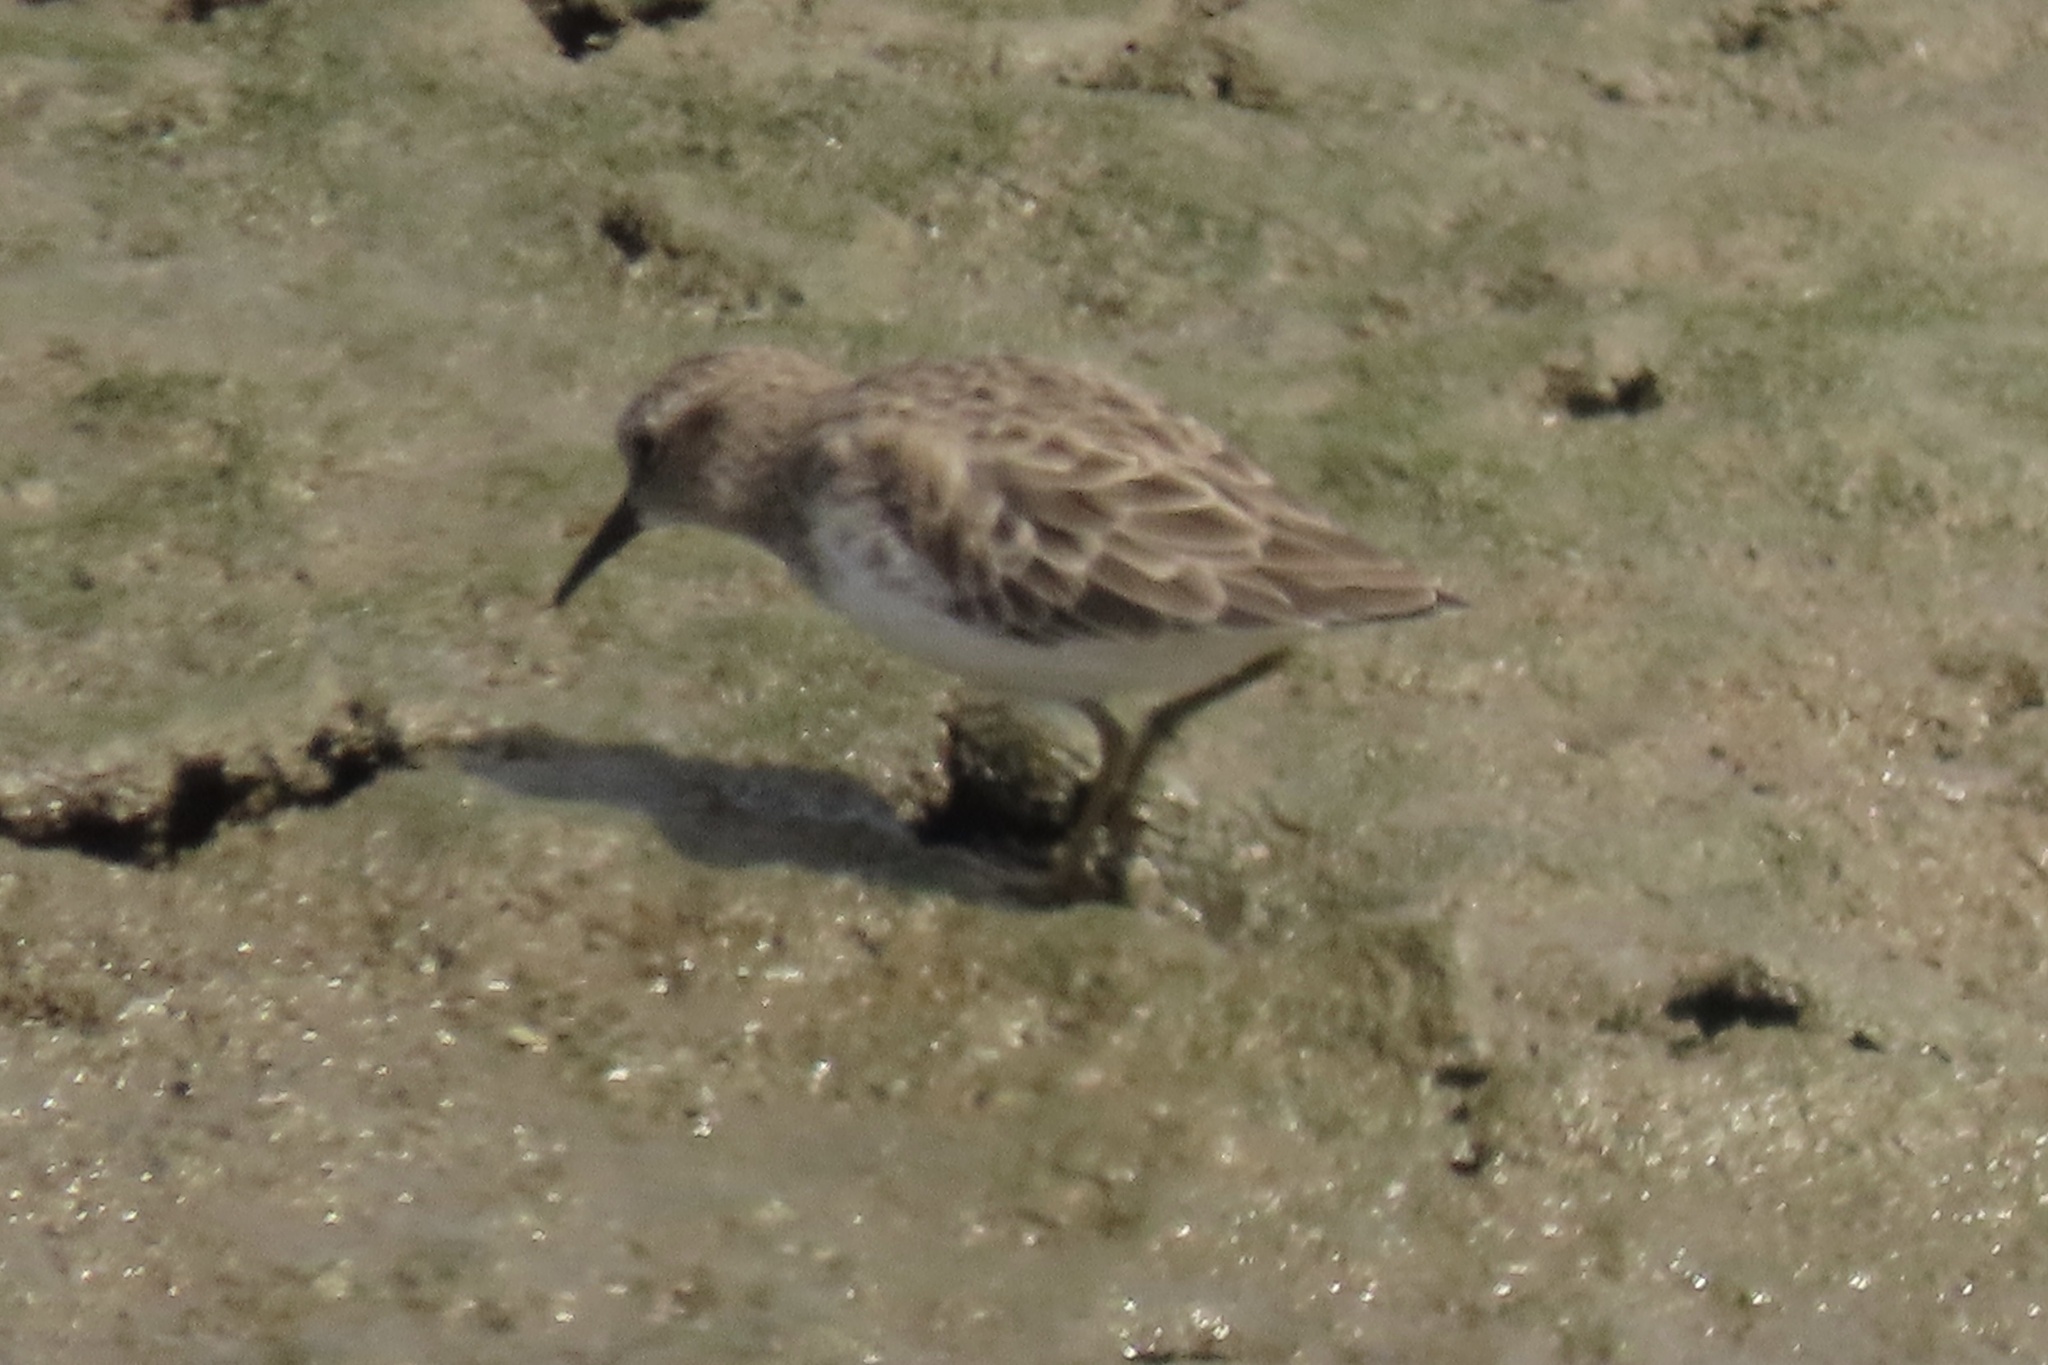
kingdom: Animalia
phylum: Chordata
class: Aves
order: Charadriiformes
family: Scolopacidae
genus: Calidris
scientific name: Calidris minutilla
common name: Least sandpiper
